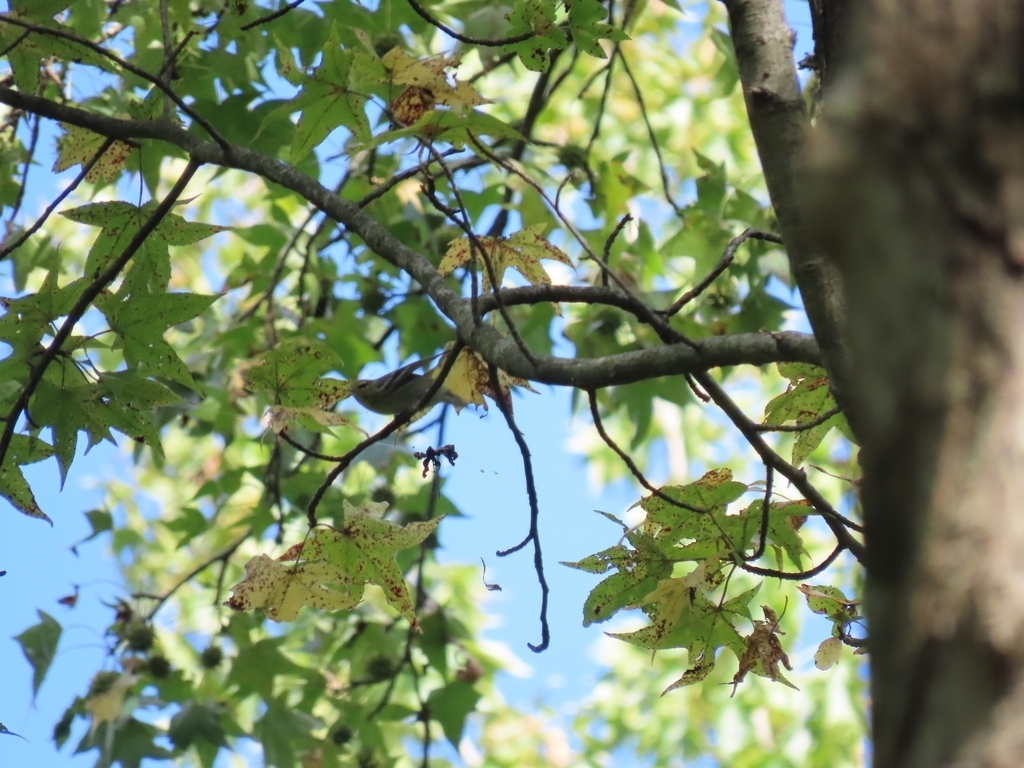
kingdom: Animalia
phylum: Chordata
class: Aves
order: Passeriformes
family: Parulidae
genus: Leiothlypis
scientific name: Leiothlypis peregrina
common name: Tennessee warbler
